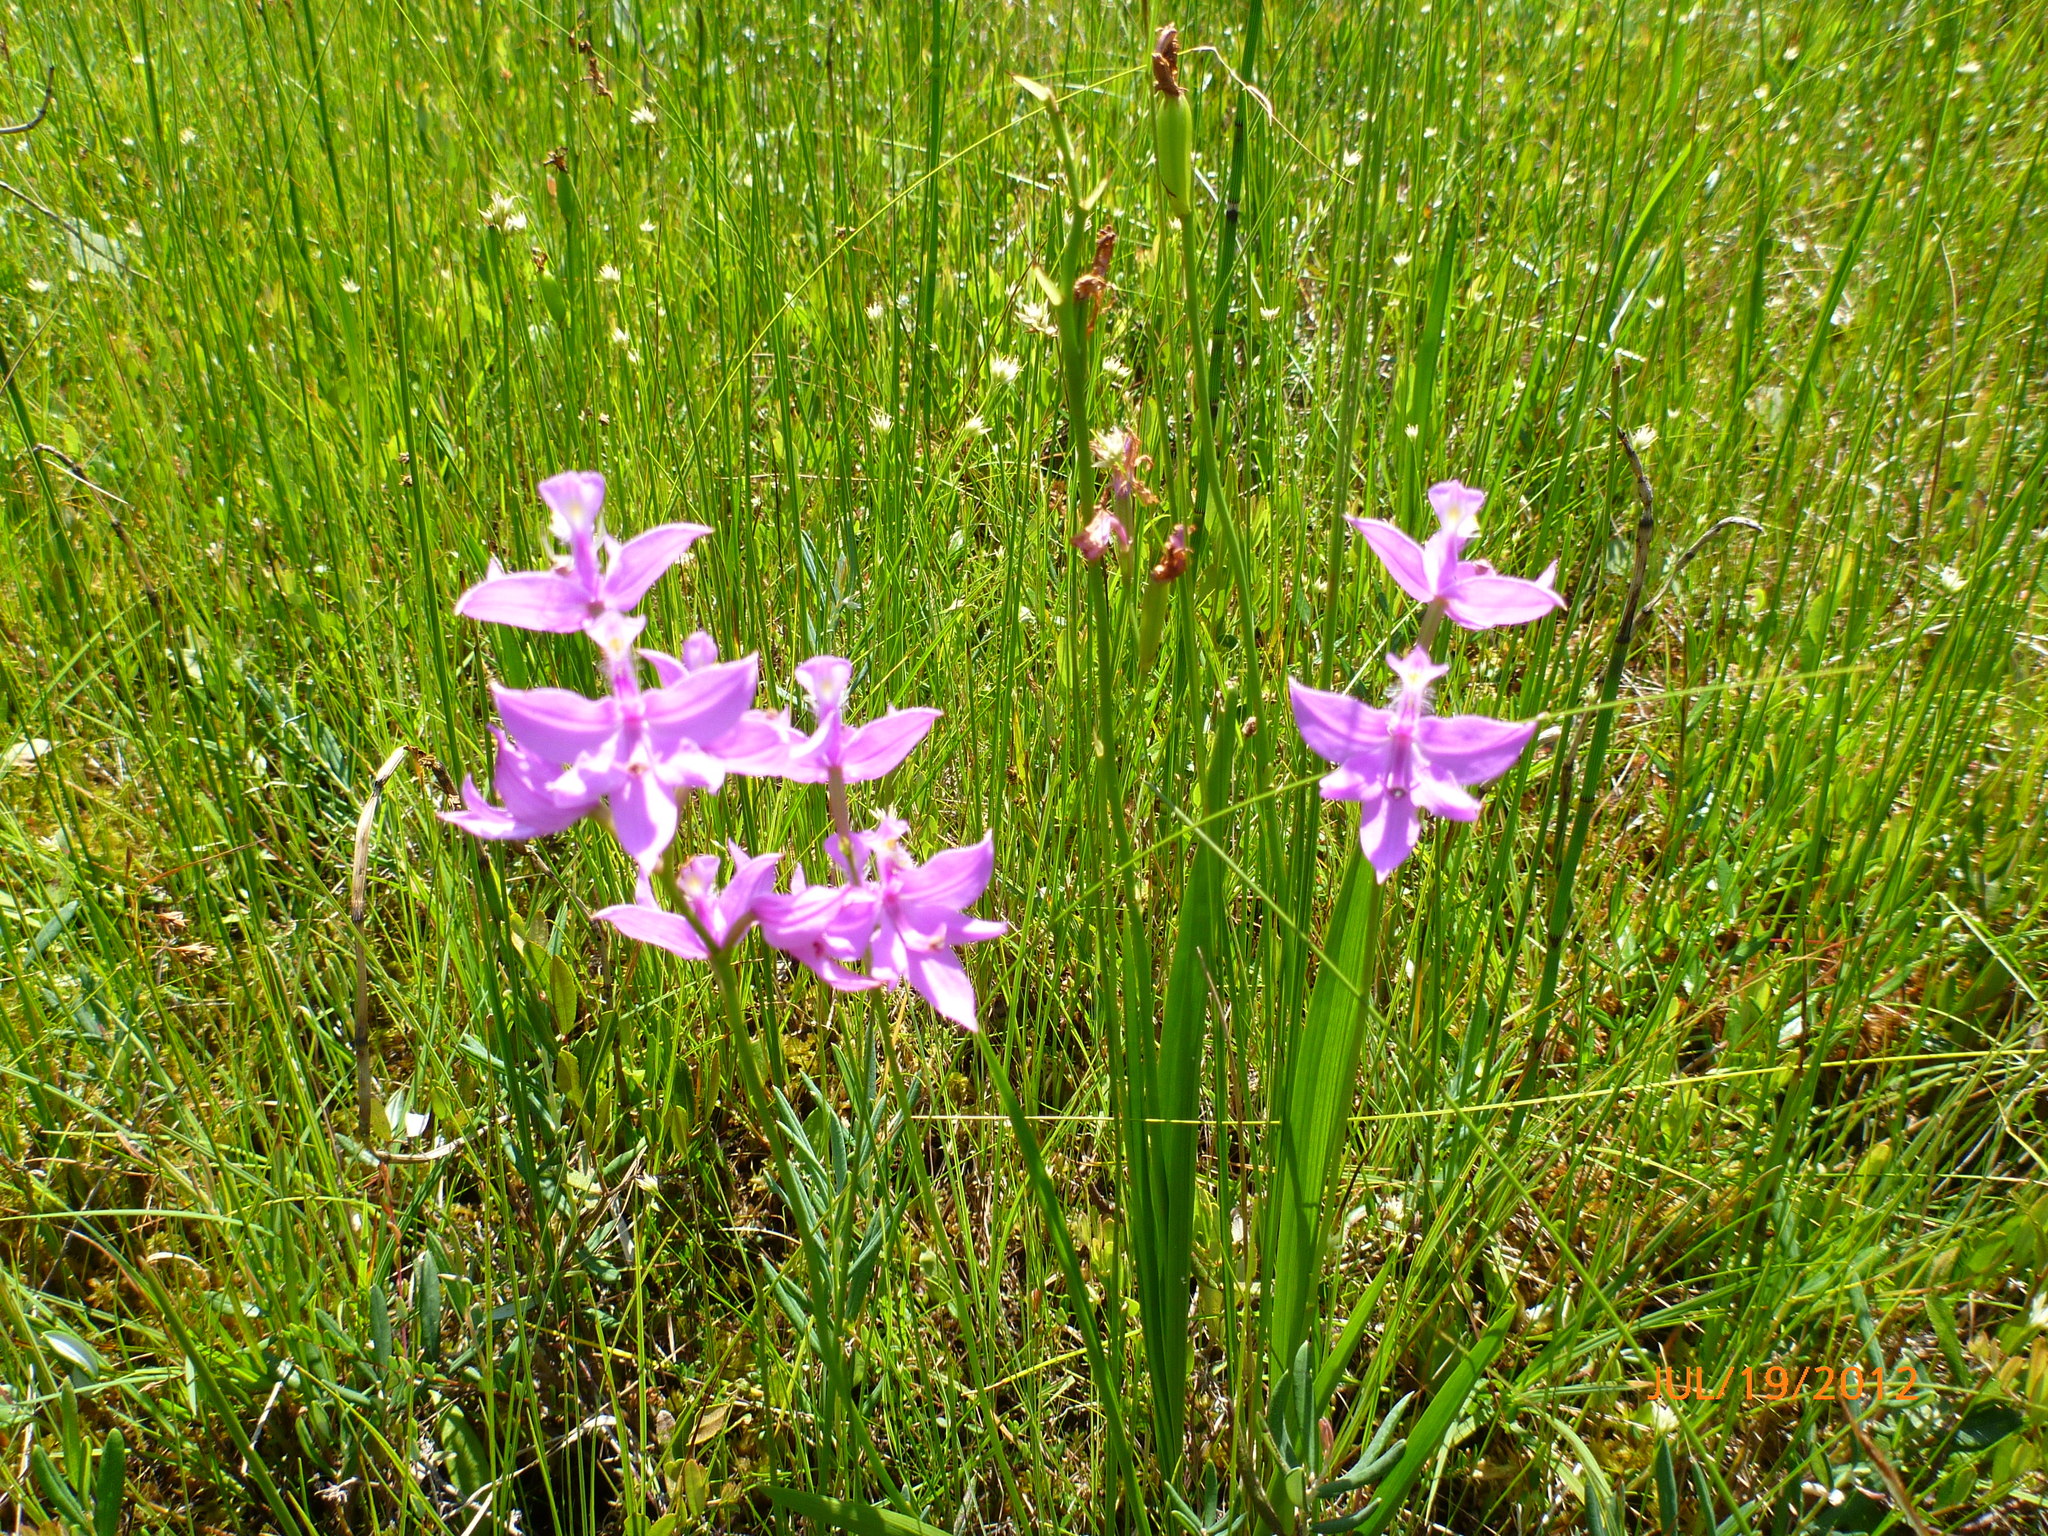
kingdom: Plantae
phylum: Tracheophyta
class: Liliopsida
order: Asparagales
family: Orchidaceae
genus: Calopogon
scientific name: Calopogon tuberosus
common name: Grass-pink
